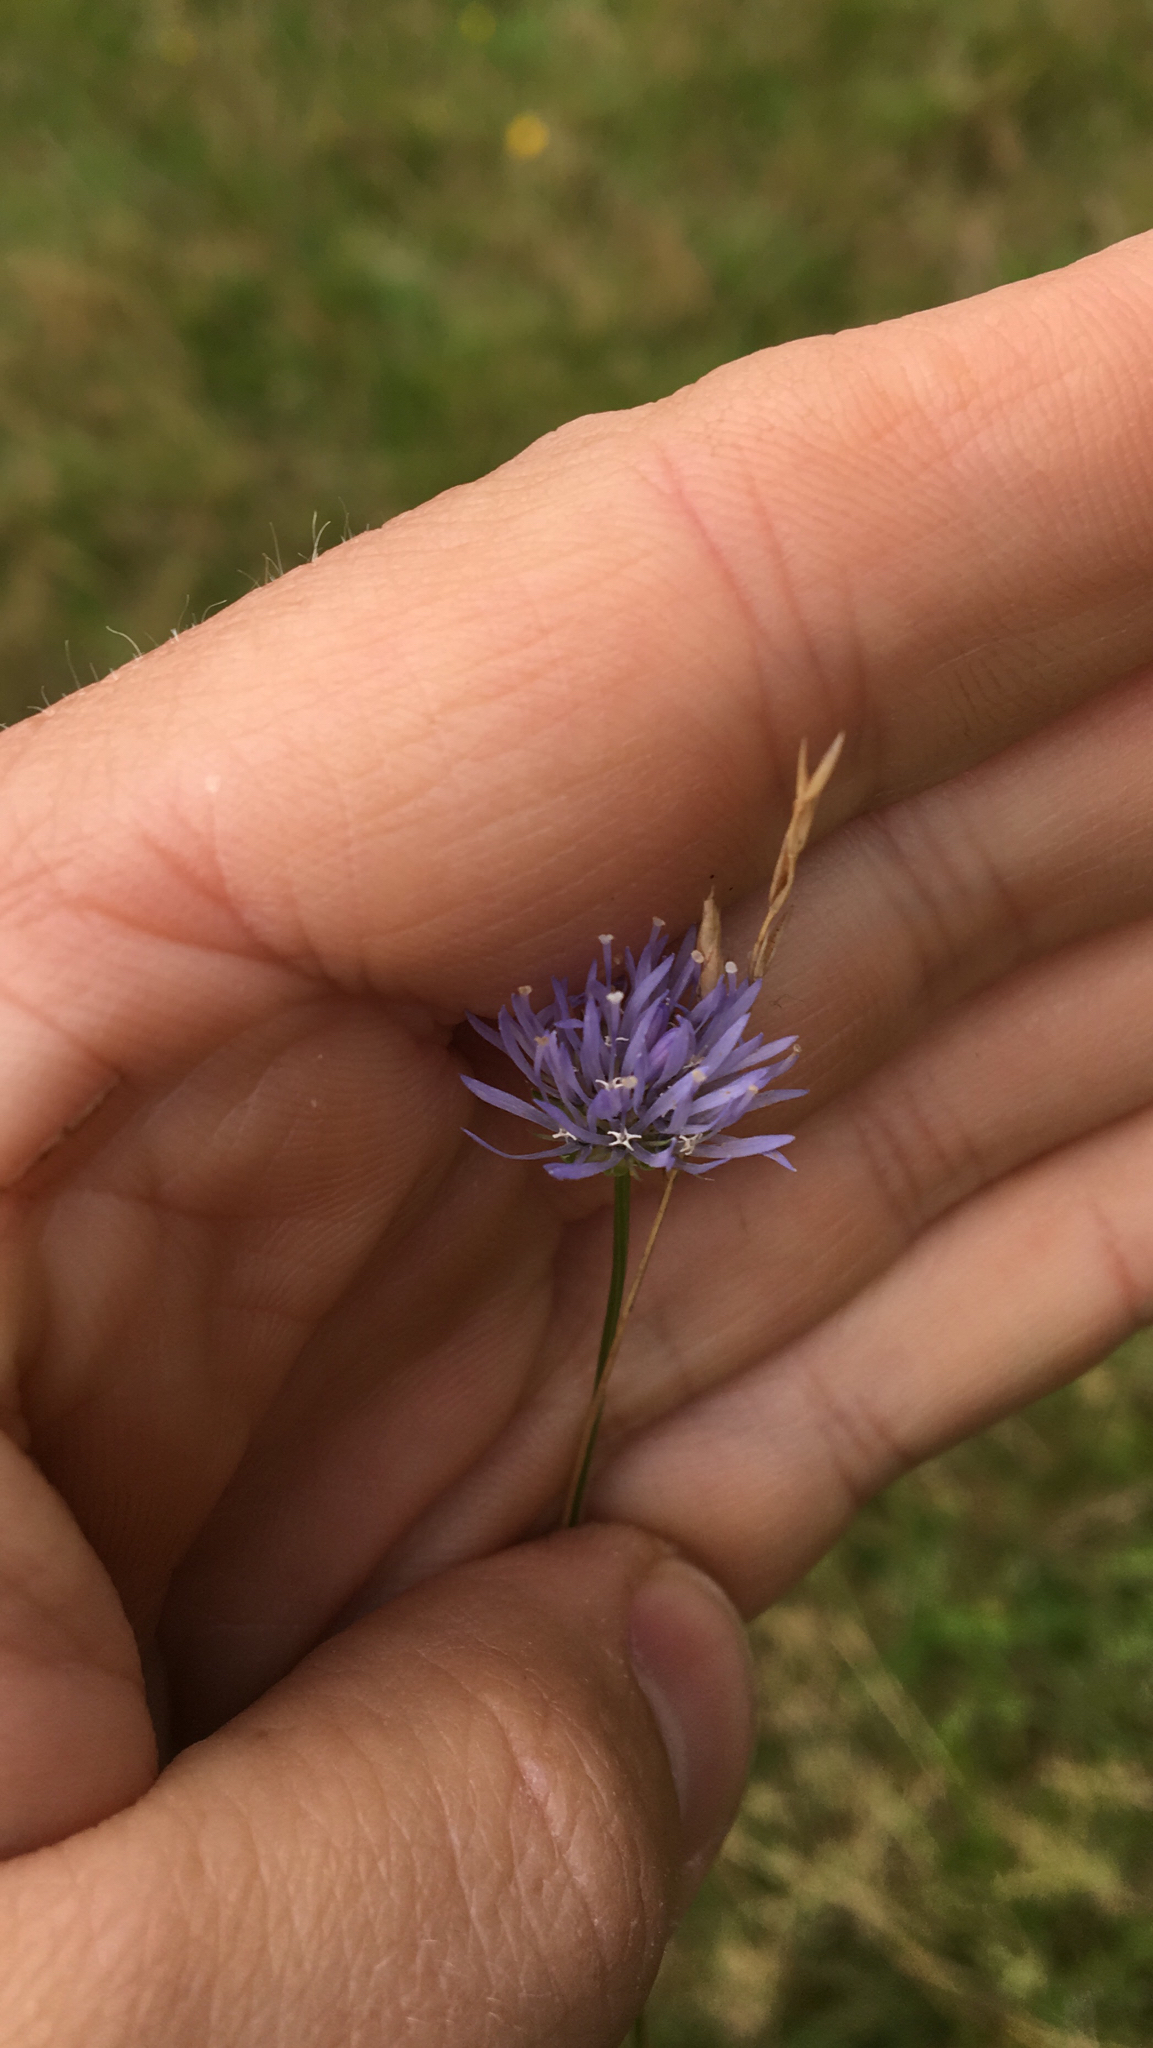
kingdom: Plantae
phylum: Tracheophyta
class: Magnoliopsida
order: Asterales
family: Campanulaceae
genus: Jasione
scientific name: Jasione montana
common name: Sheep's-bit
